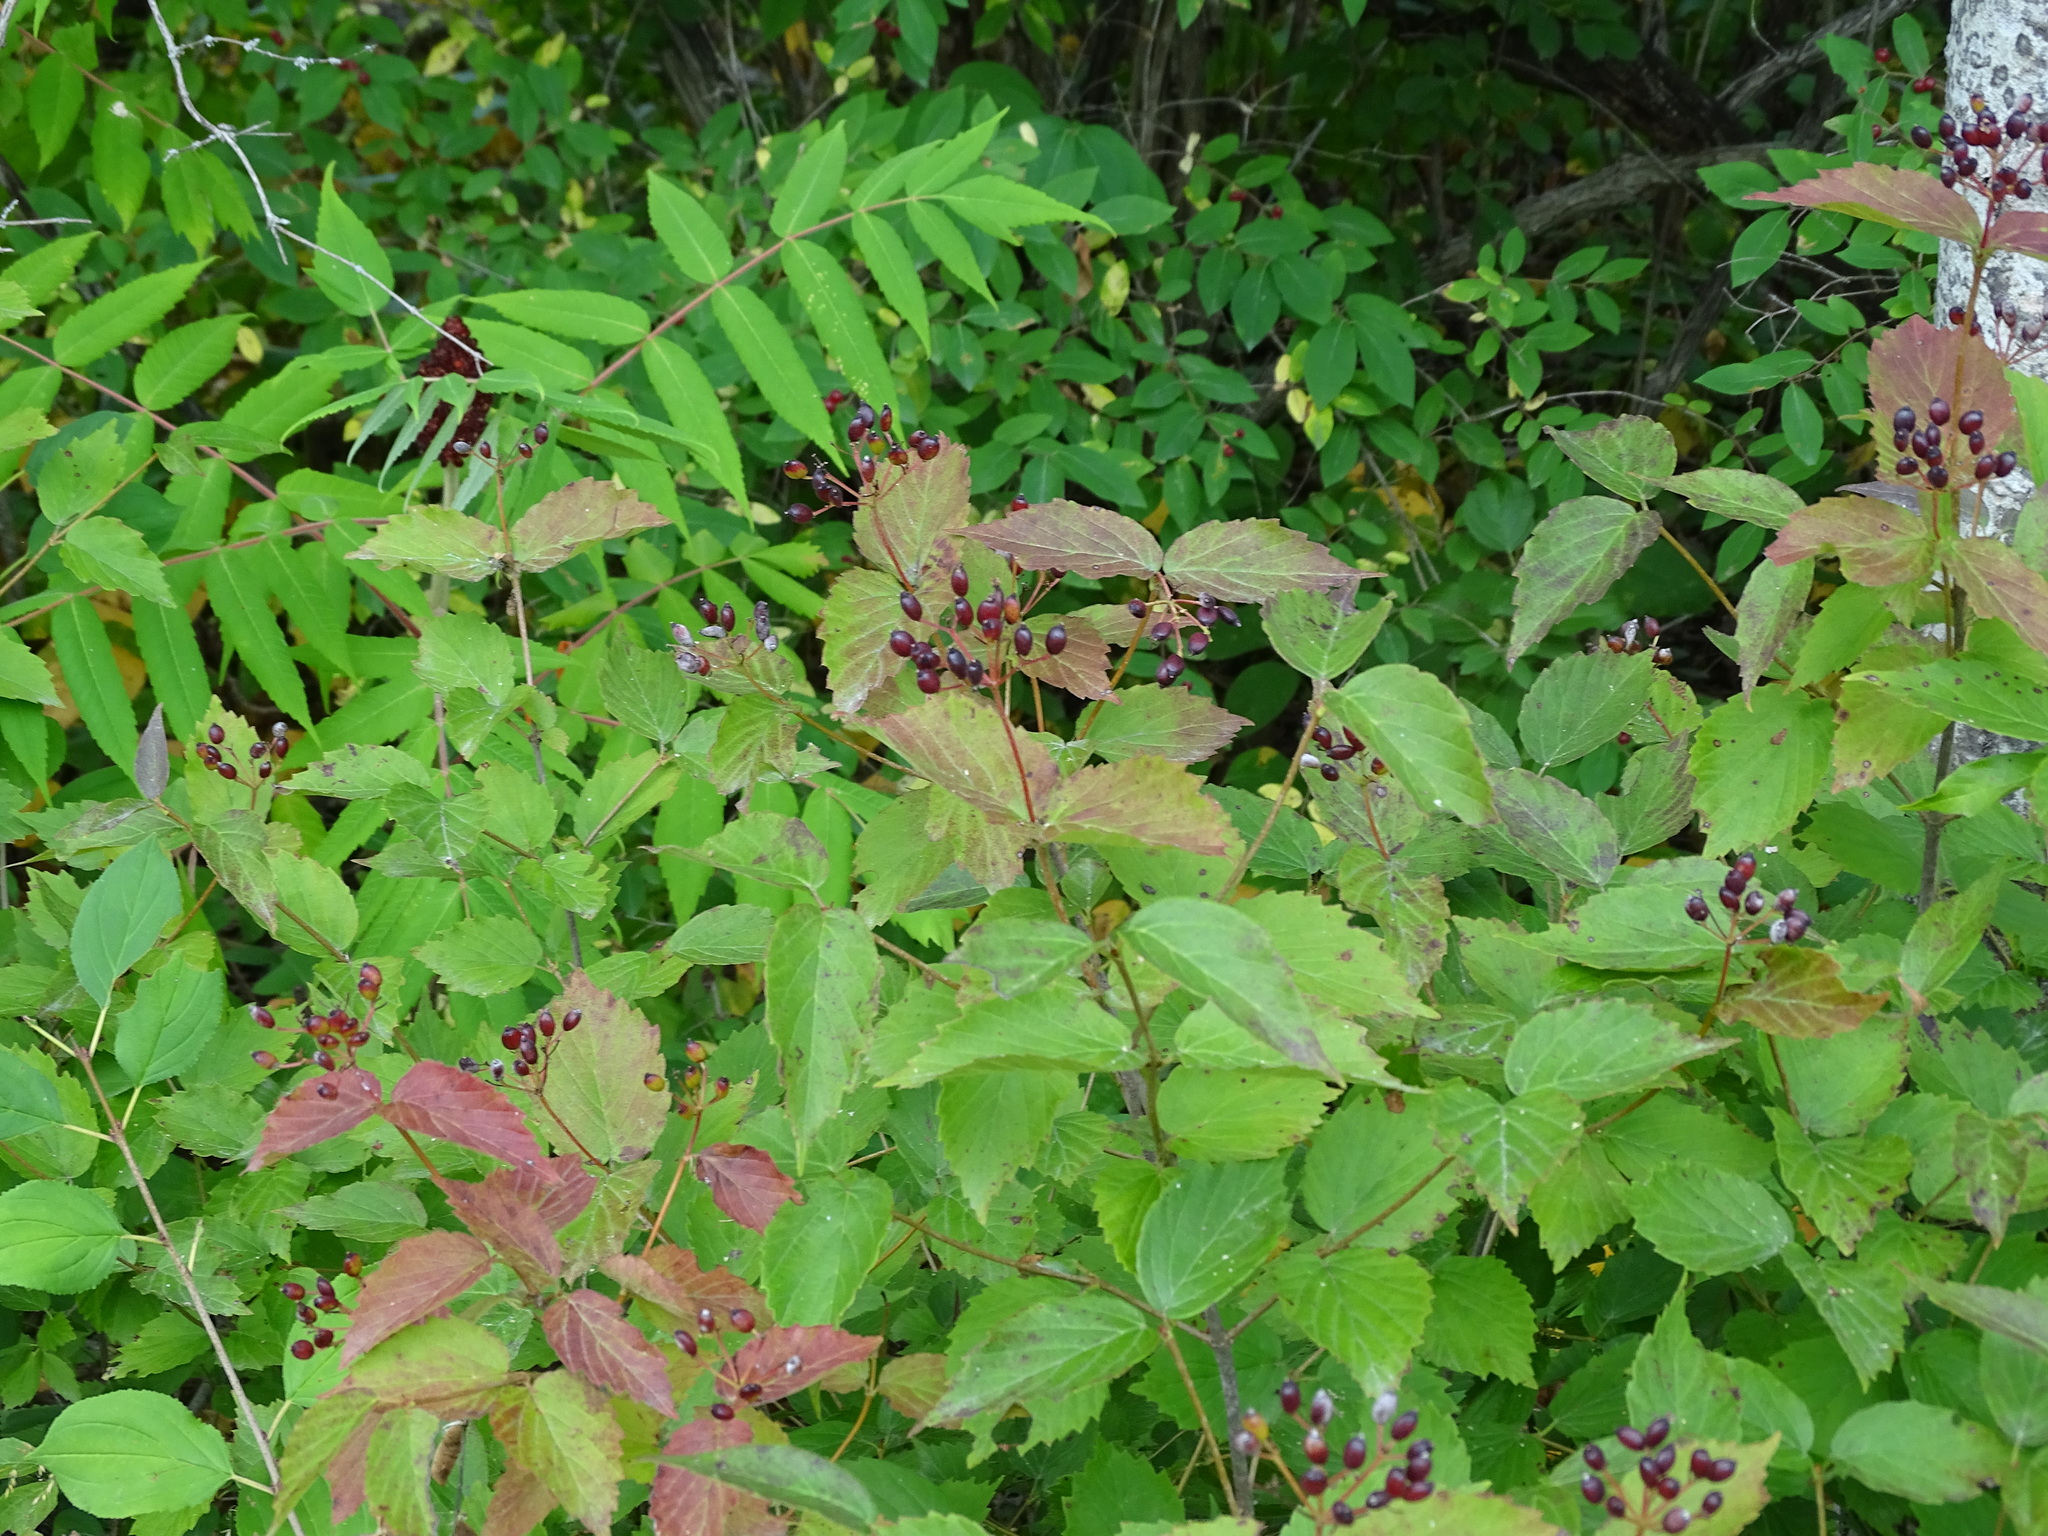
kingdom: Plantae
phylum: Tracheophyta
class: Magnoliopsida
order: Dipsacales
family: Viburnaceae
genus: Viburnum
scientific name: Viburnum rafinesqueanum
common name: Downy arrow-wood
